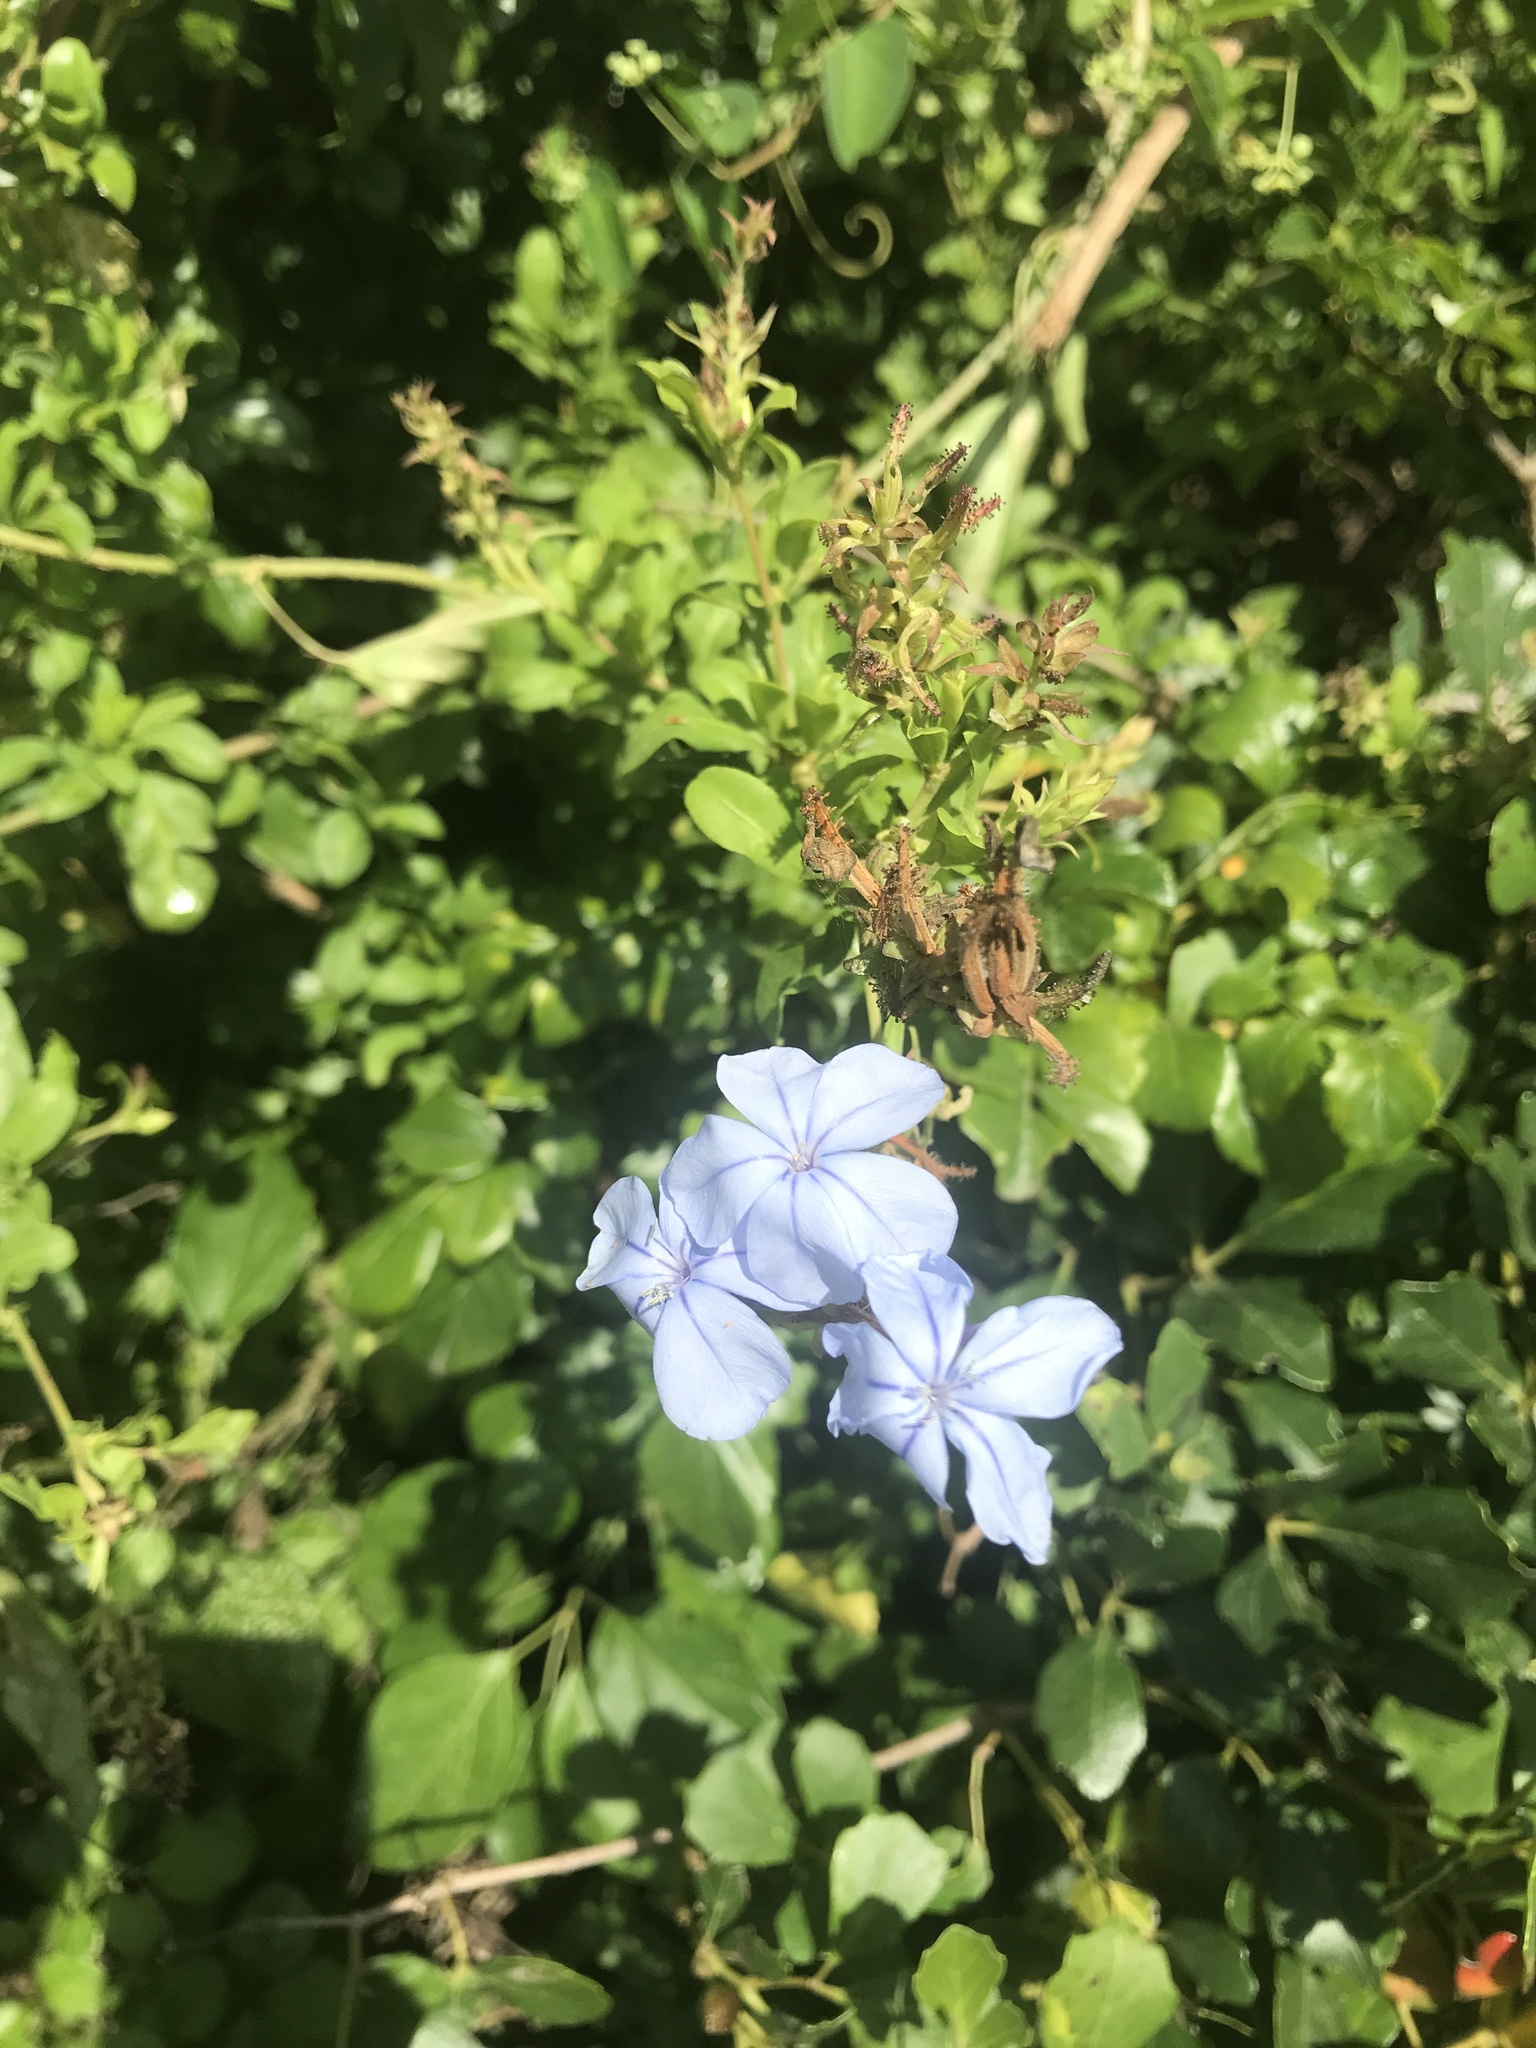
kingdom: Plantae
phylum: Tracheophyta
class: Magnoliopsida
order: Caryophyllales
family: Plumbaginaceae
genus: Plumbago
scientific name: Plumbago auriculata
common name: Cape leadwort
